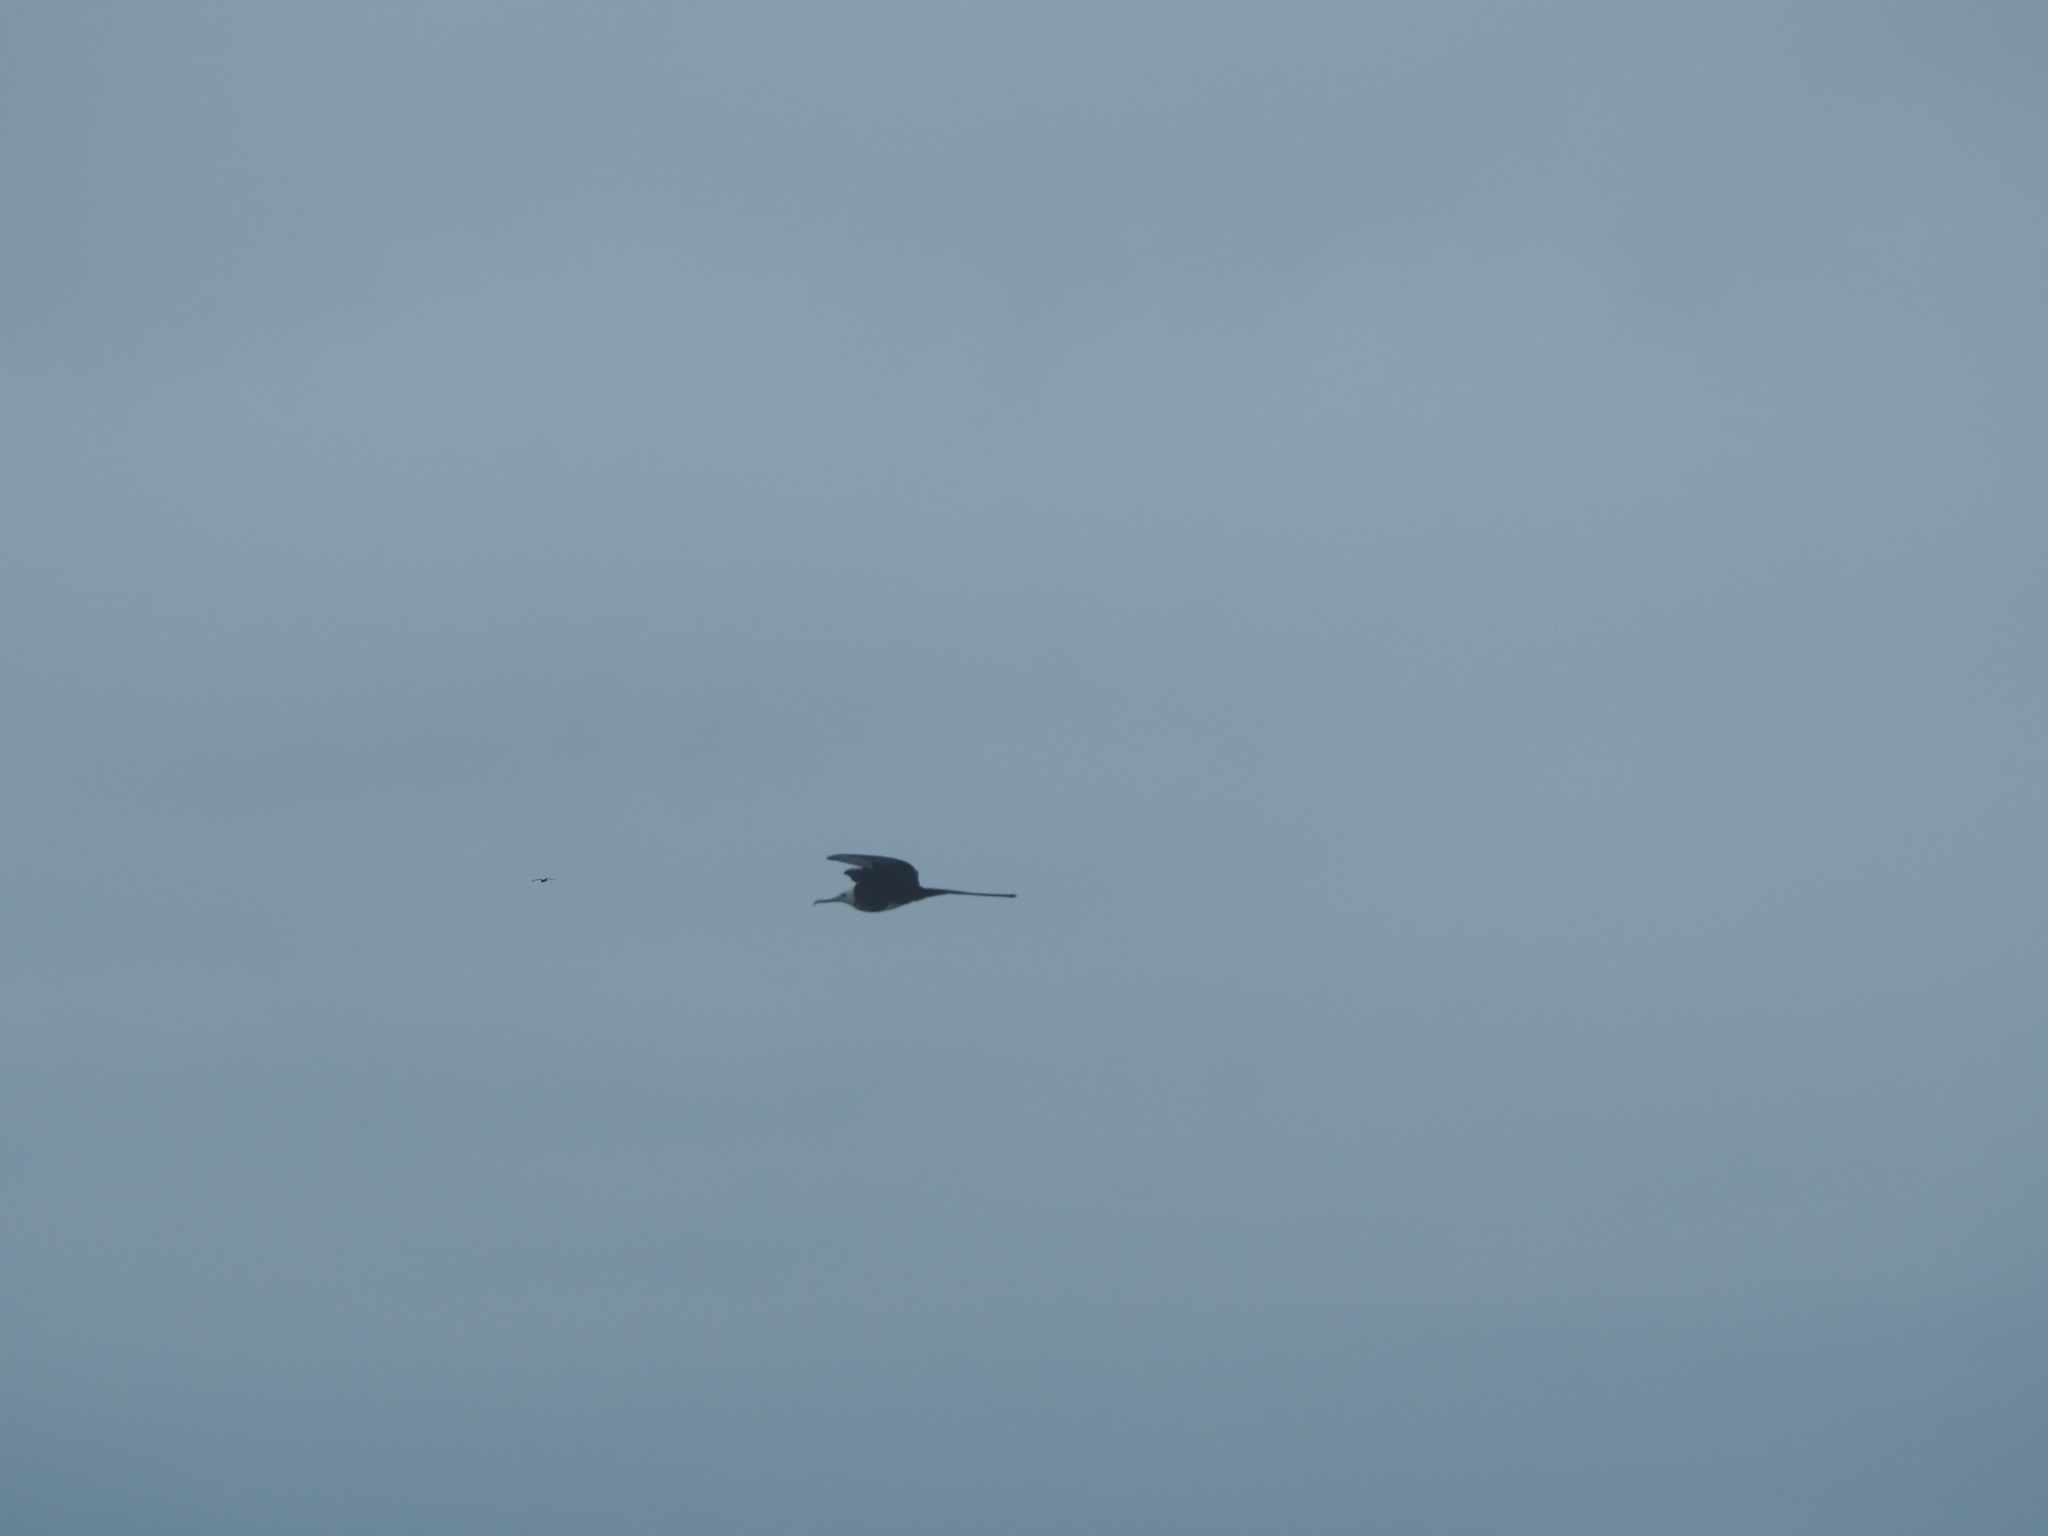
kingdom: Animalia
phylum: Chordata
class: Aves
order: Suliformes
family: Fregatidae
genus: Fregata
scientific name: Fregata magnificens
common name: Magnificent frigatebird
